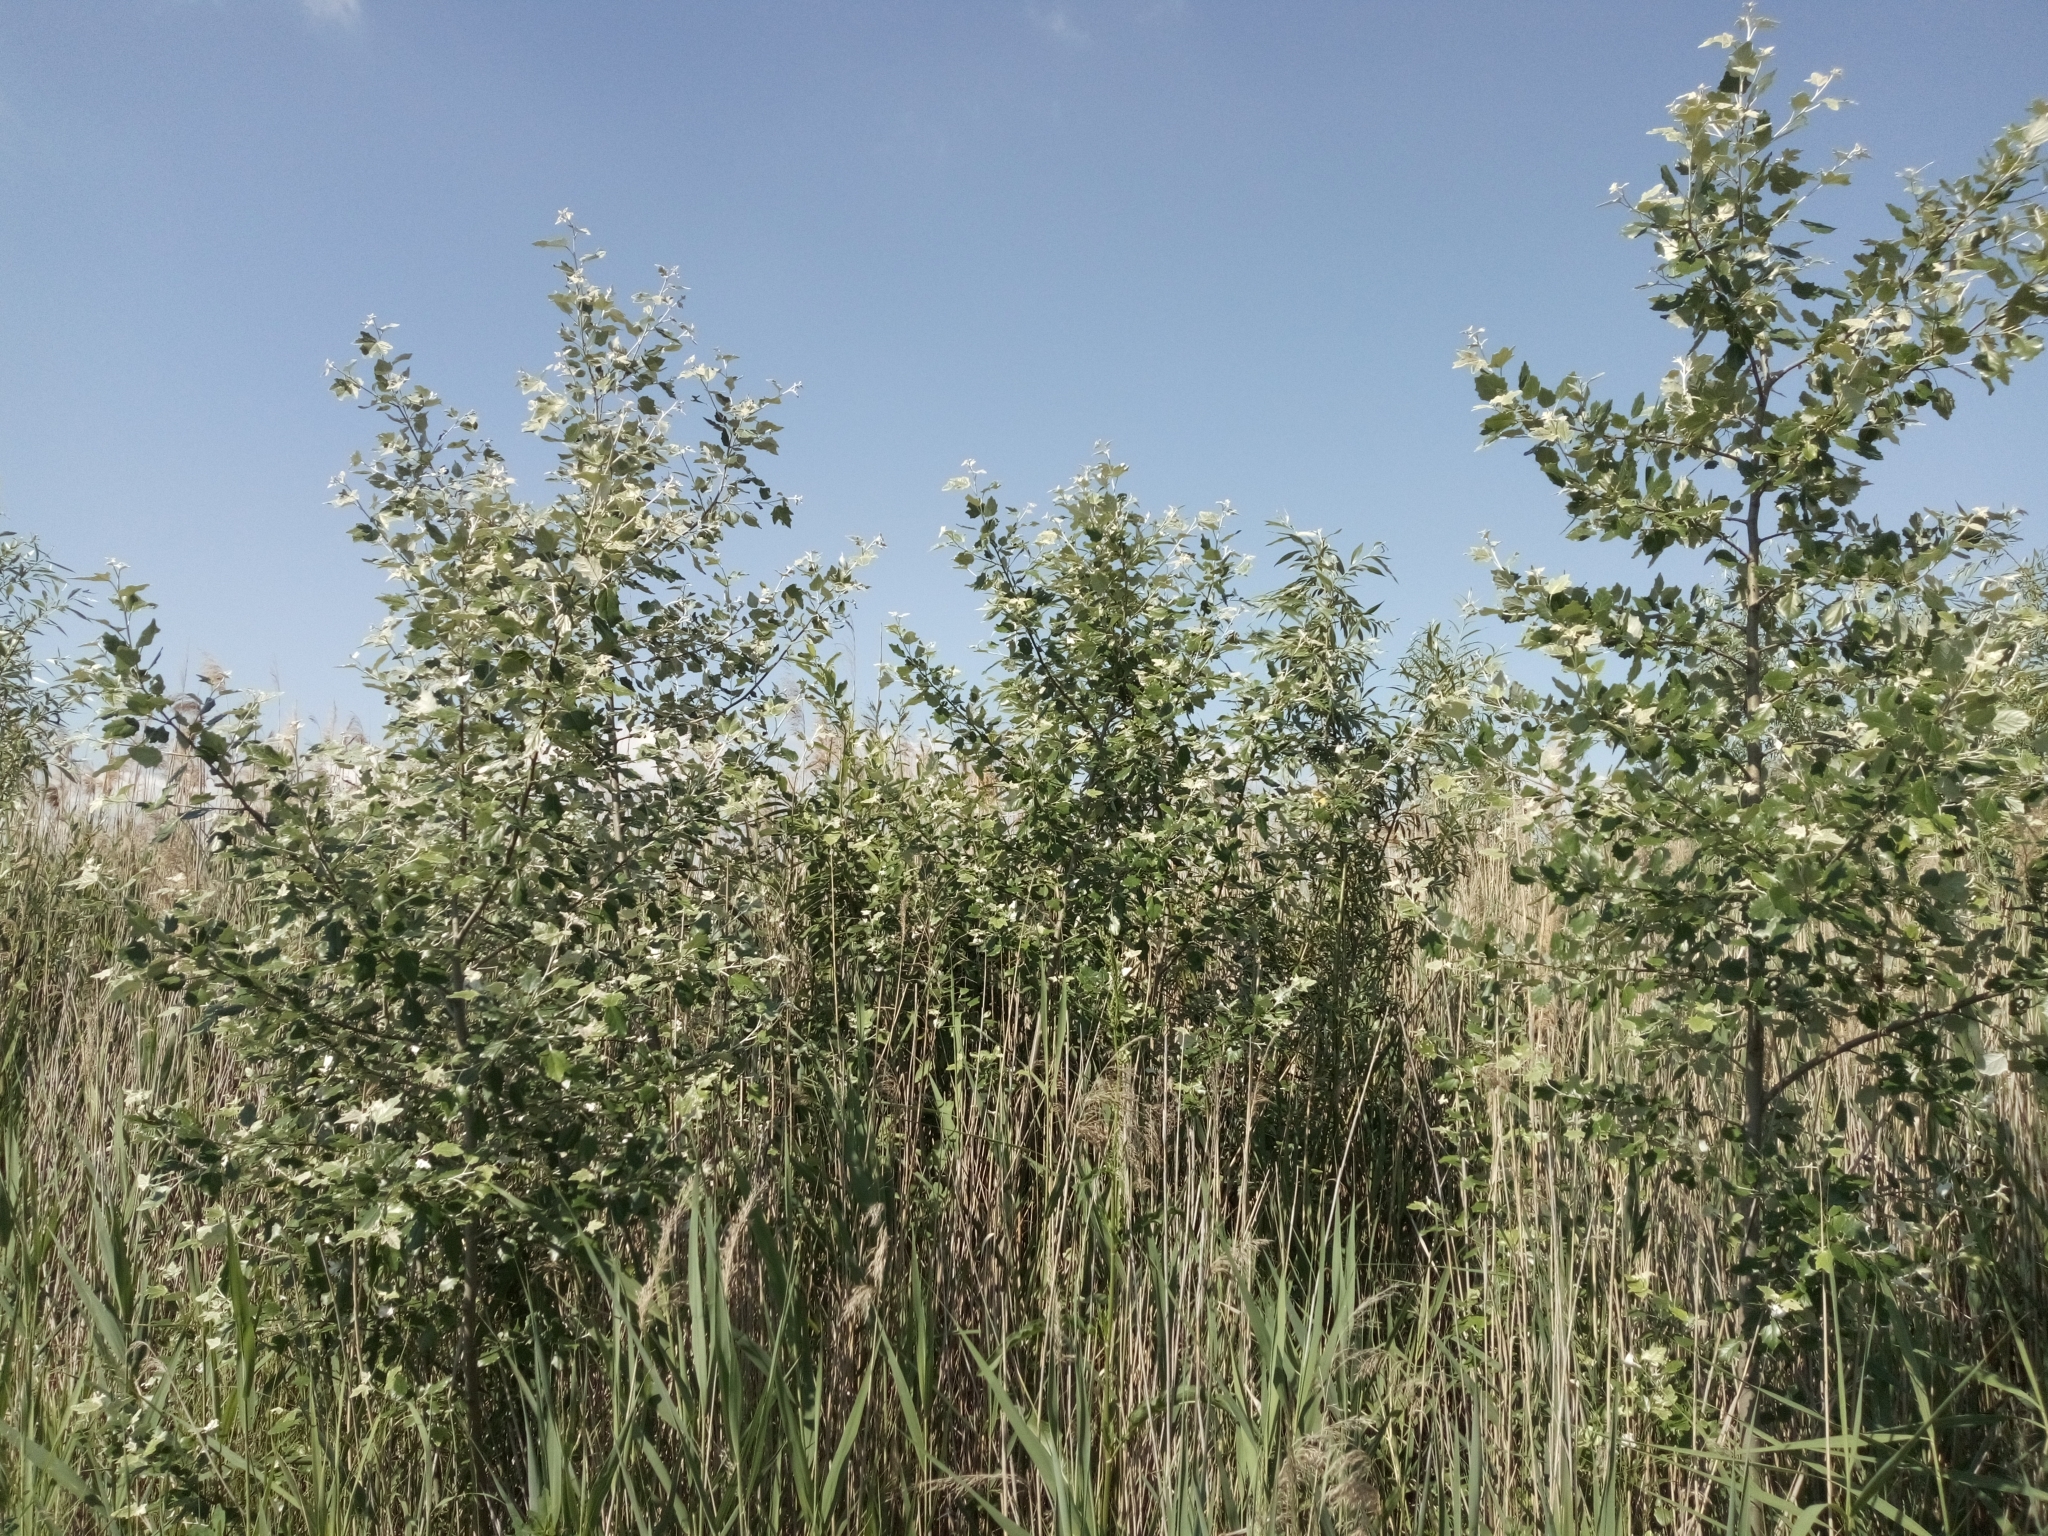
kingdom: Plantae
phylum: Tracheophyta
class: Magnoliopsida
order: Malpighiales
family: Salicaceae
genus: Populus
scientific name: Populus canescens
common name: Gray poplar
